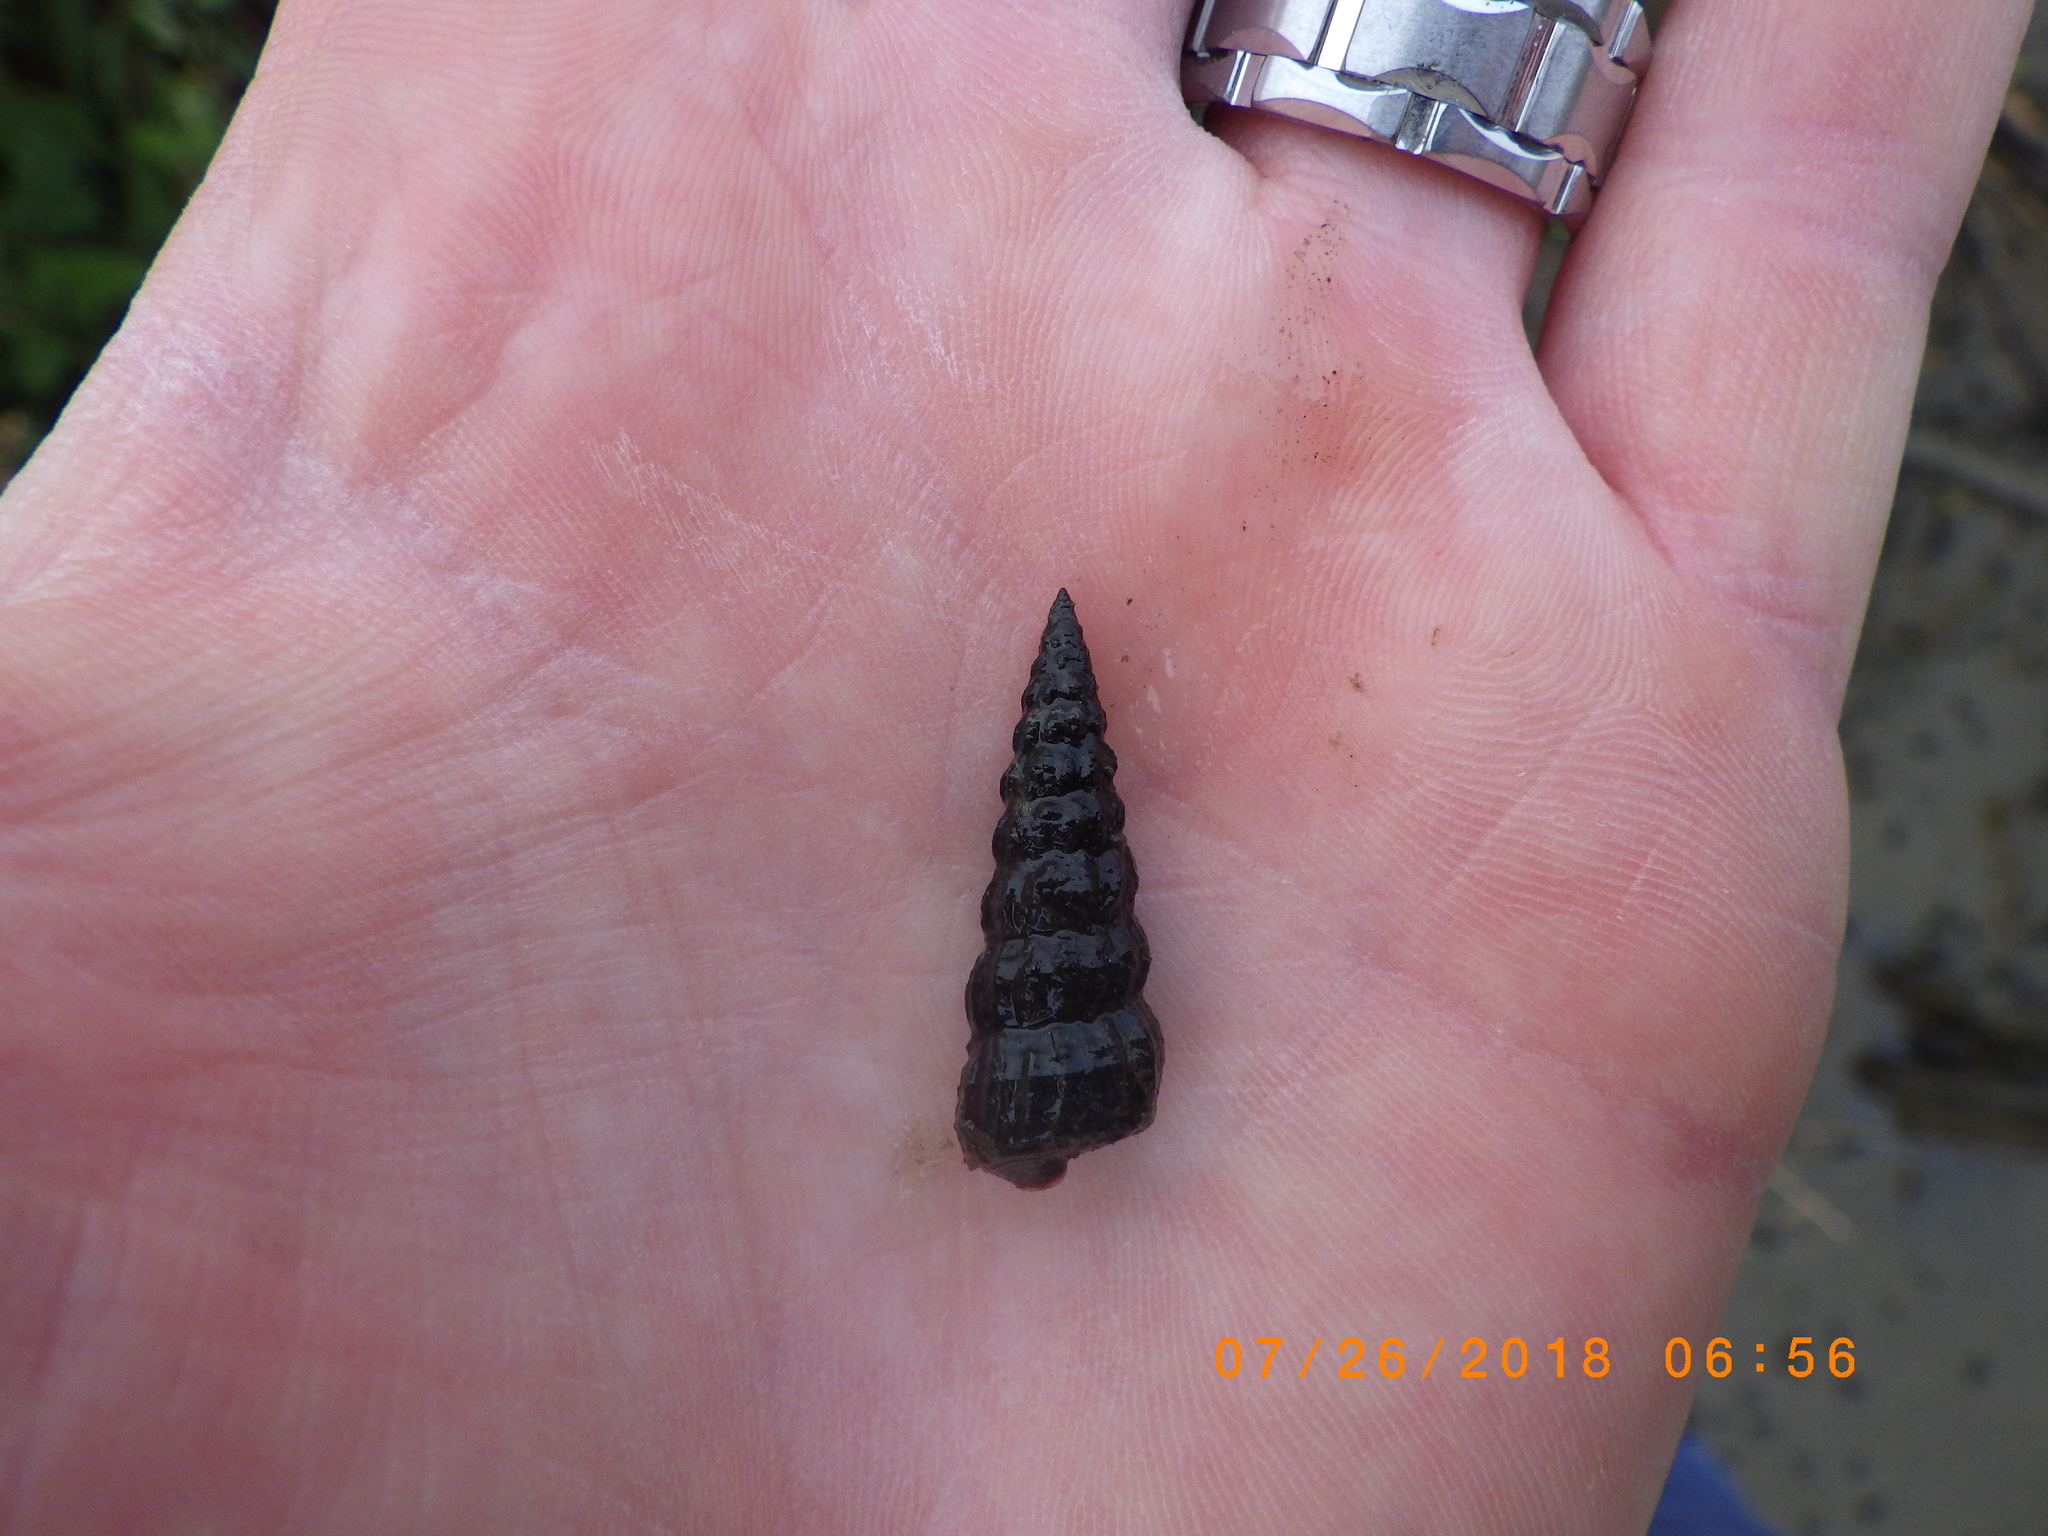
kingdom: Animalia
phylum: Mollusca
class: Gastropoda
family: Potamididae
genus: Cerithideopsis
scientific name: Cerithideopsis californica
